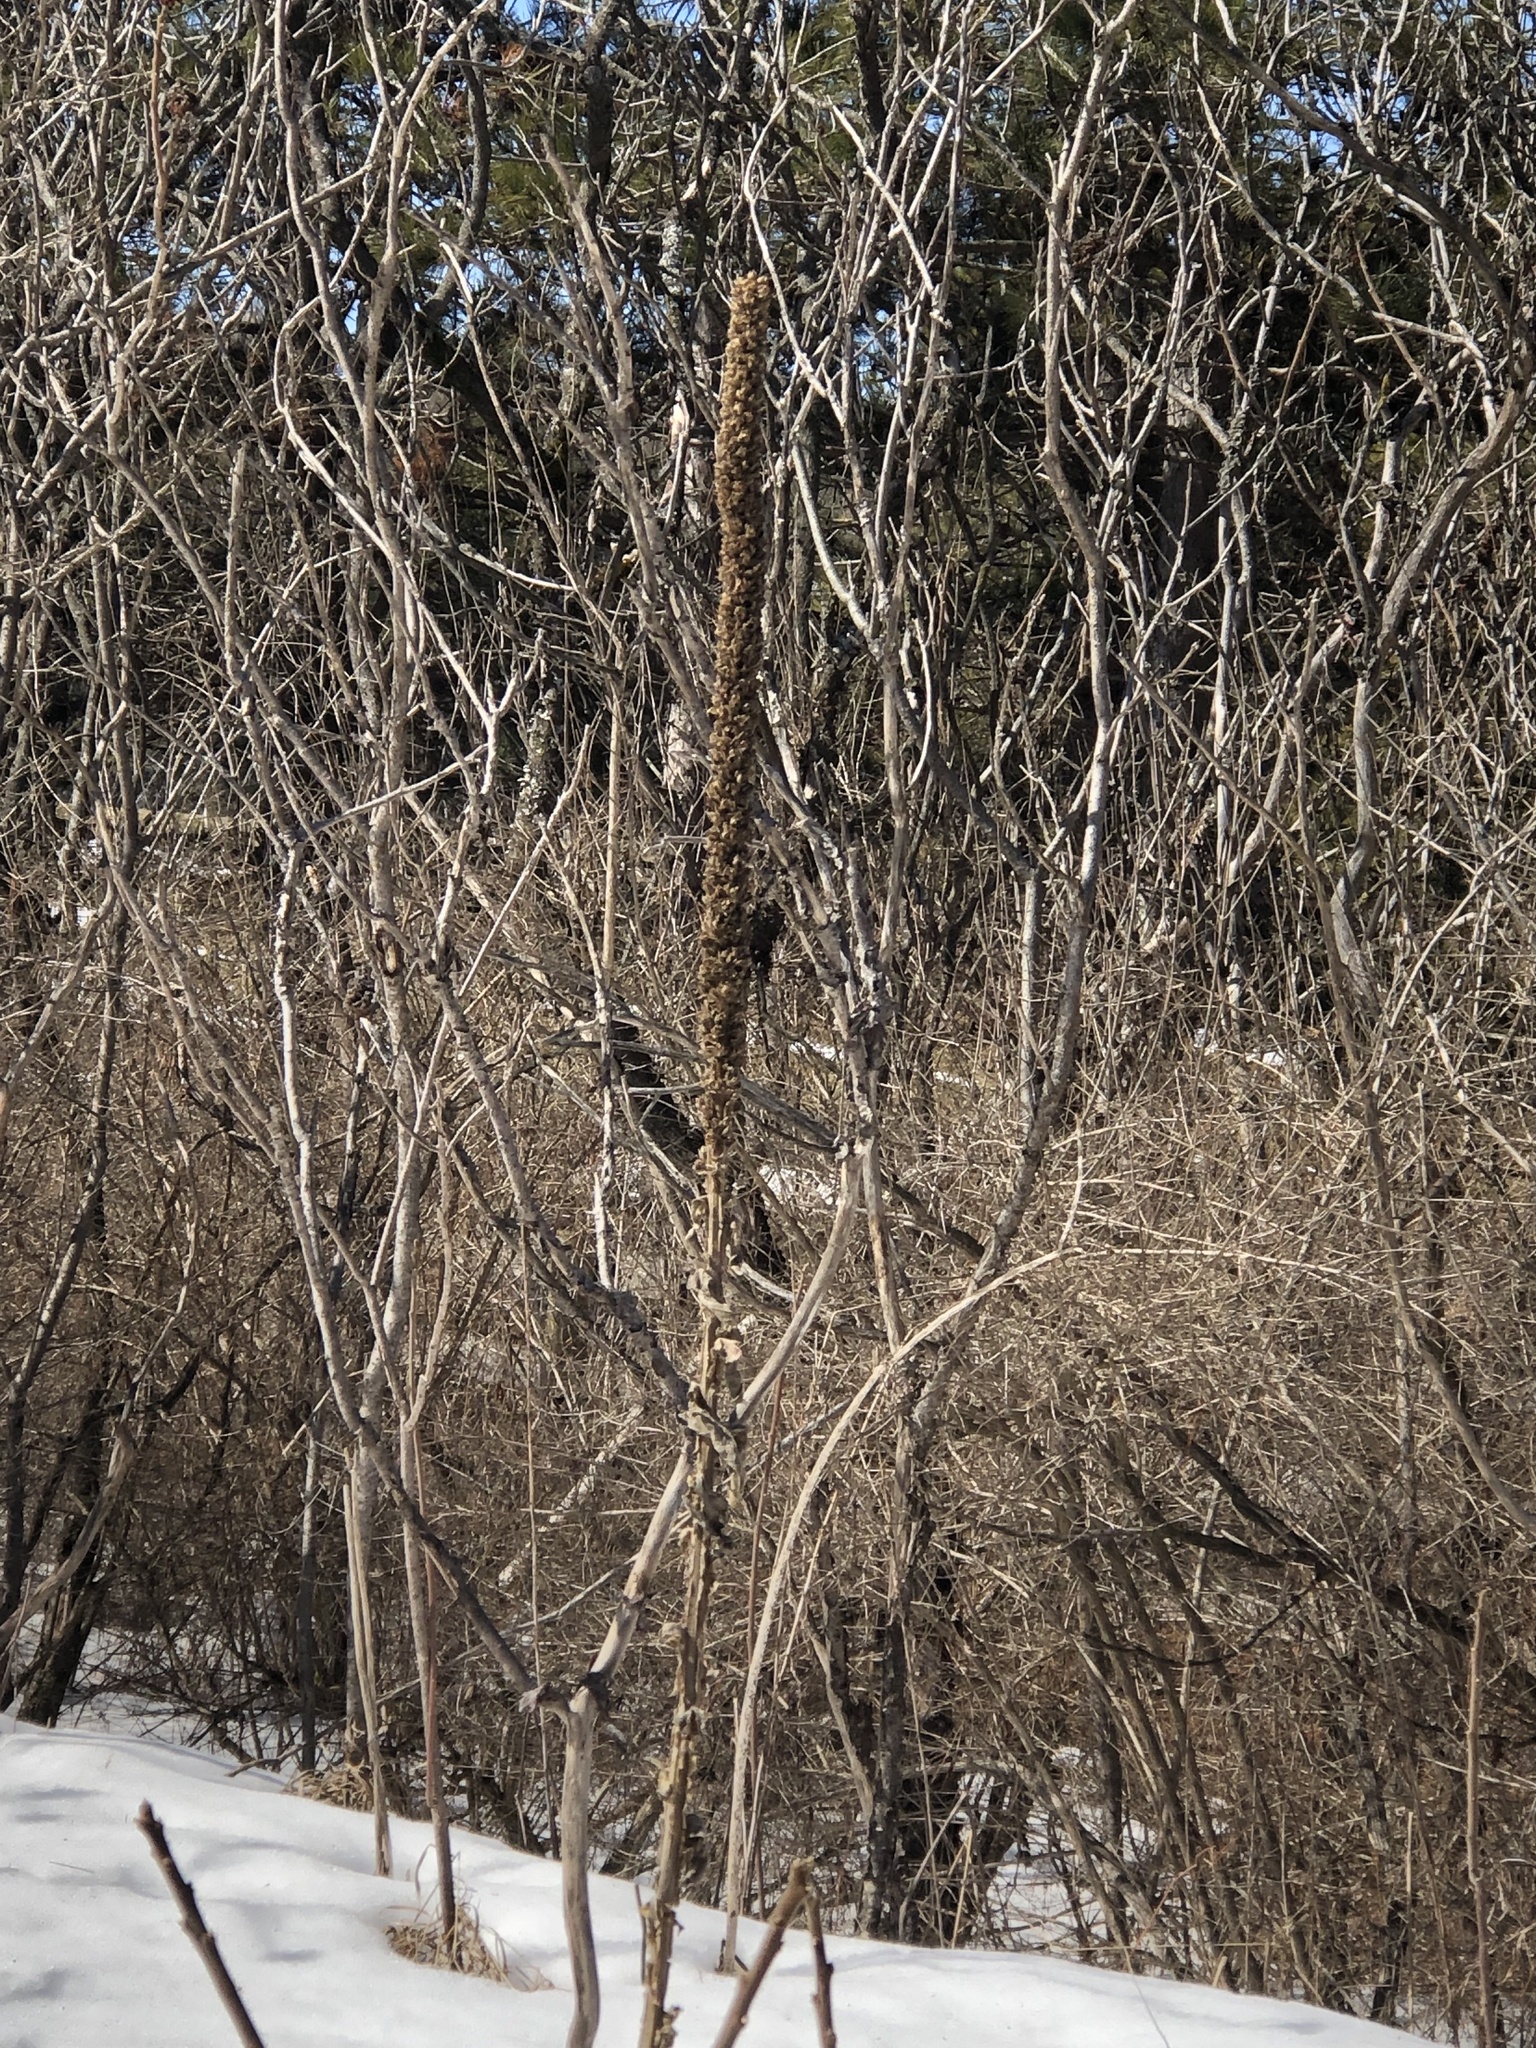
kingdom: Plantae
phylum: Tracheophyta
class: Magnoliopsida
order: Lamiales
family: Scrophulariaceae
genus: Verbascum
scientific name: Verbascum thapsus
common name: Common mullein
